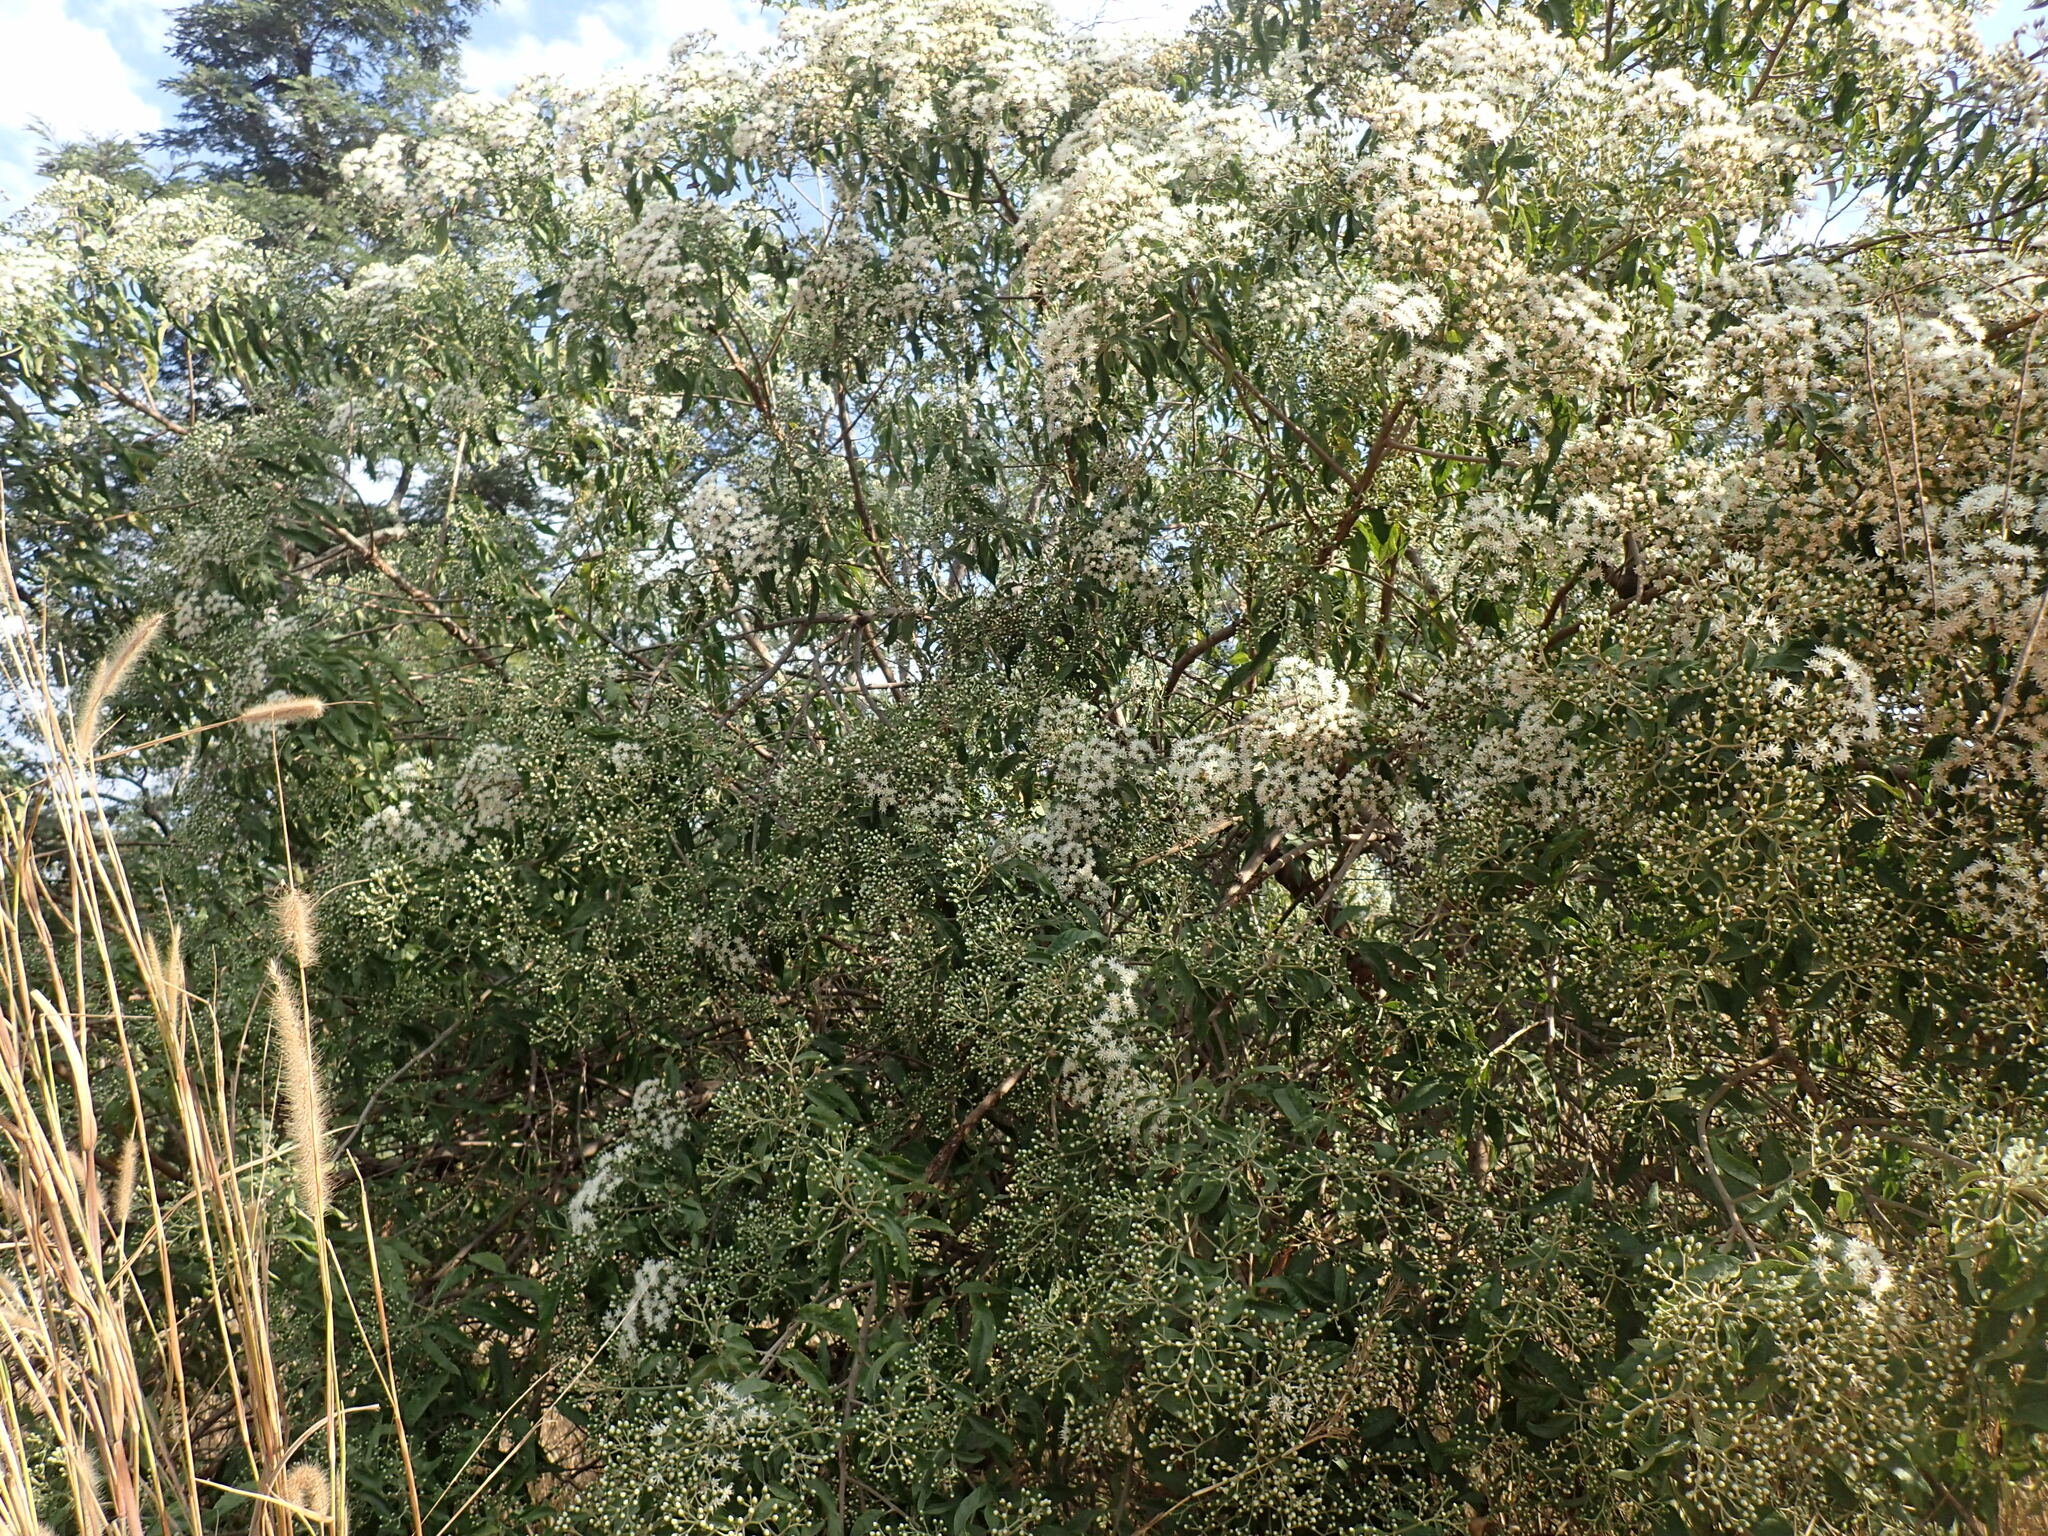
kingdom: Plantae
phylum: Tracheophyta
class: Magnoliopsida
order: Asterales
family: Asteraceae
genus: Gymnanthemum
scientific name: Gymnanthemum amygdalinum
